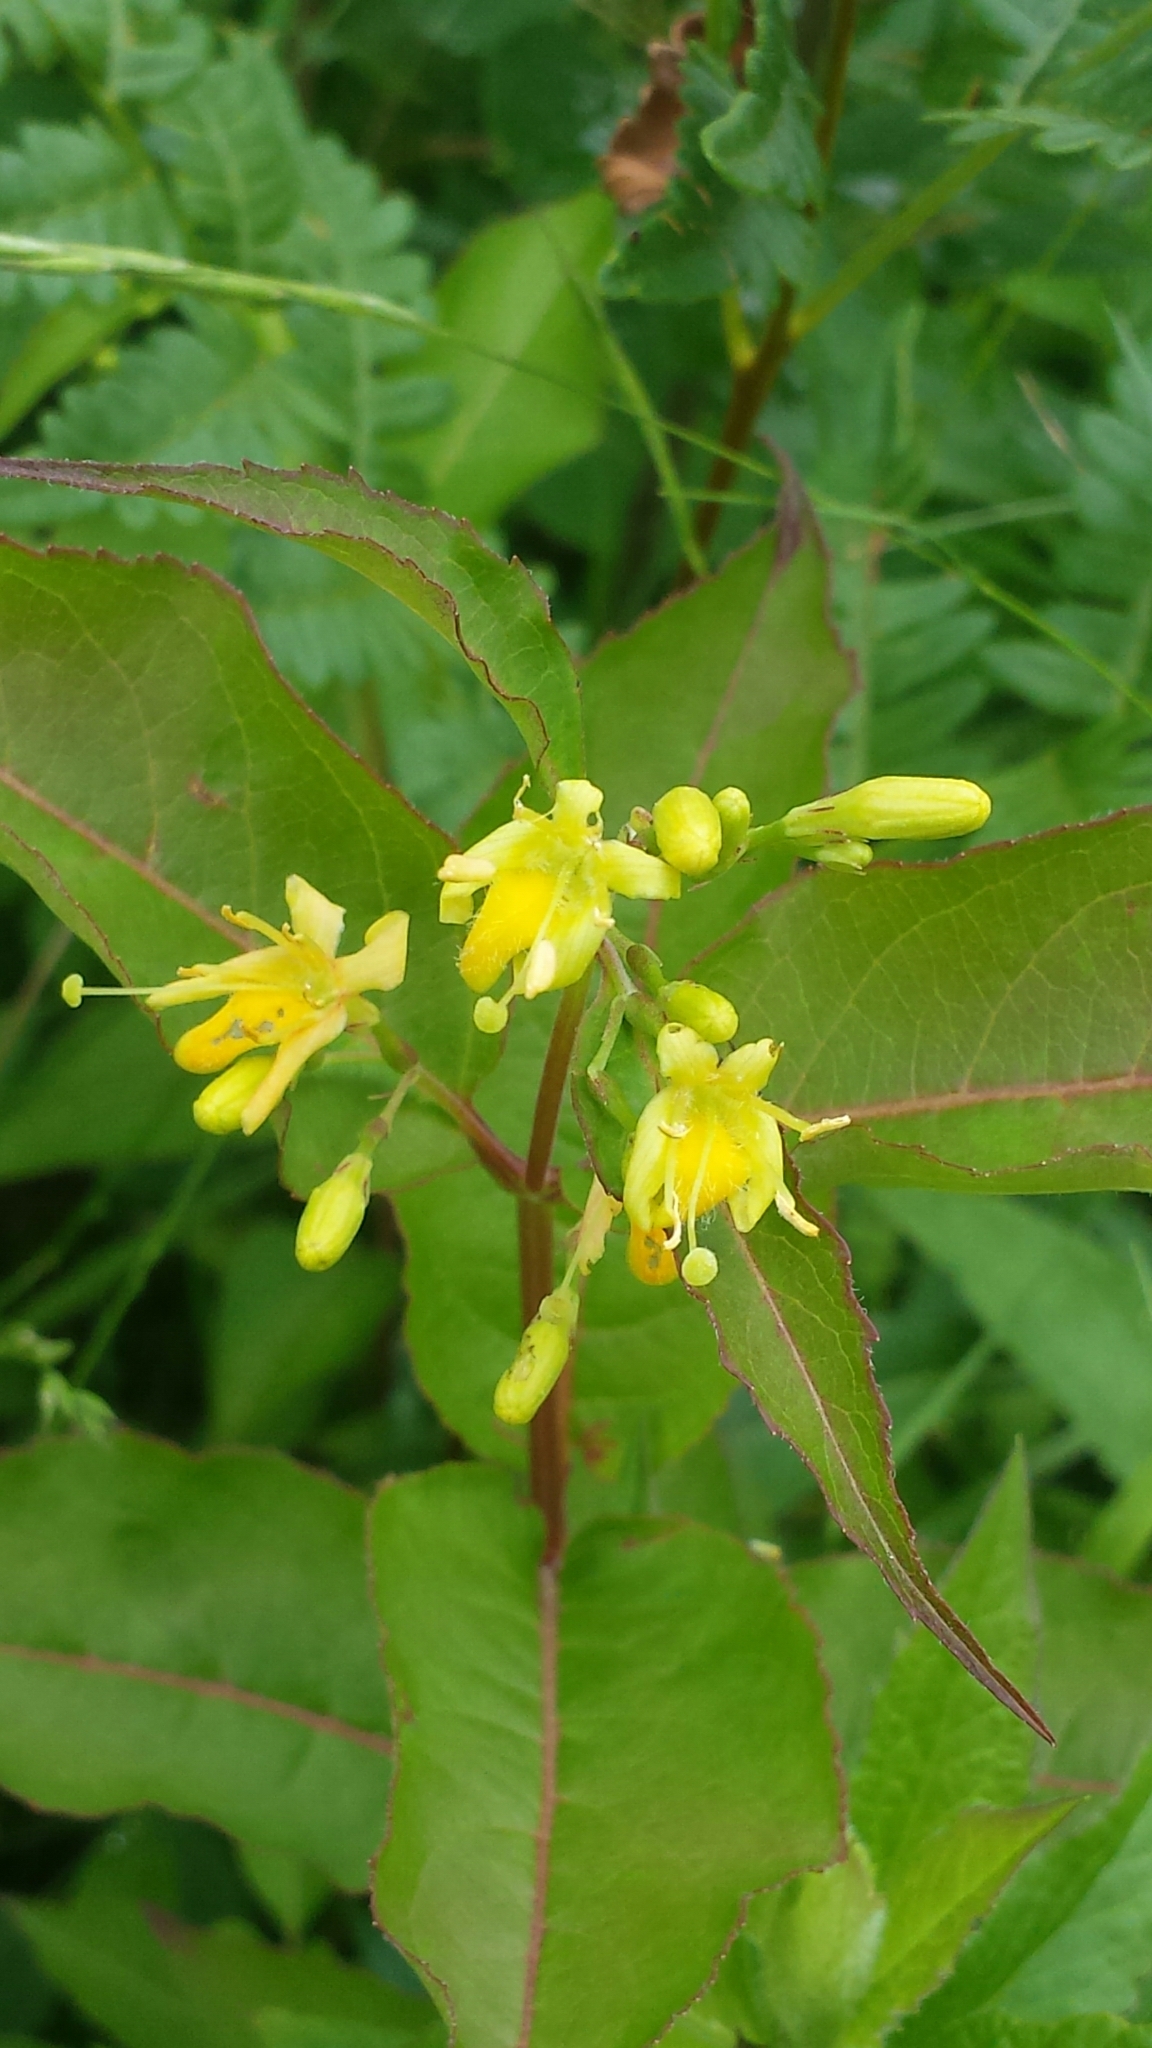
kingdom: Plantae
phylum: Tracheophyta
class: Magnoliopsida
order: Dipsacales
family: Caprifoliaceae
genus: Diervilla
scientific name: Diervilla lonicera
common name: Bush-honeysuckle
